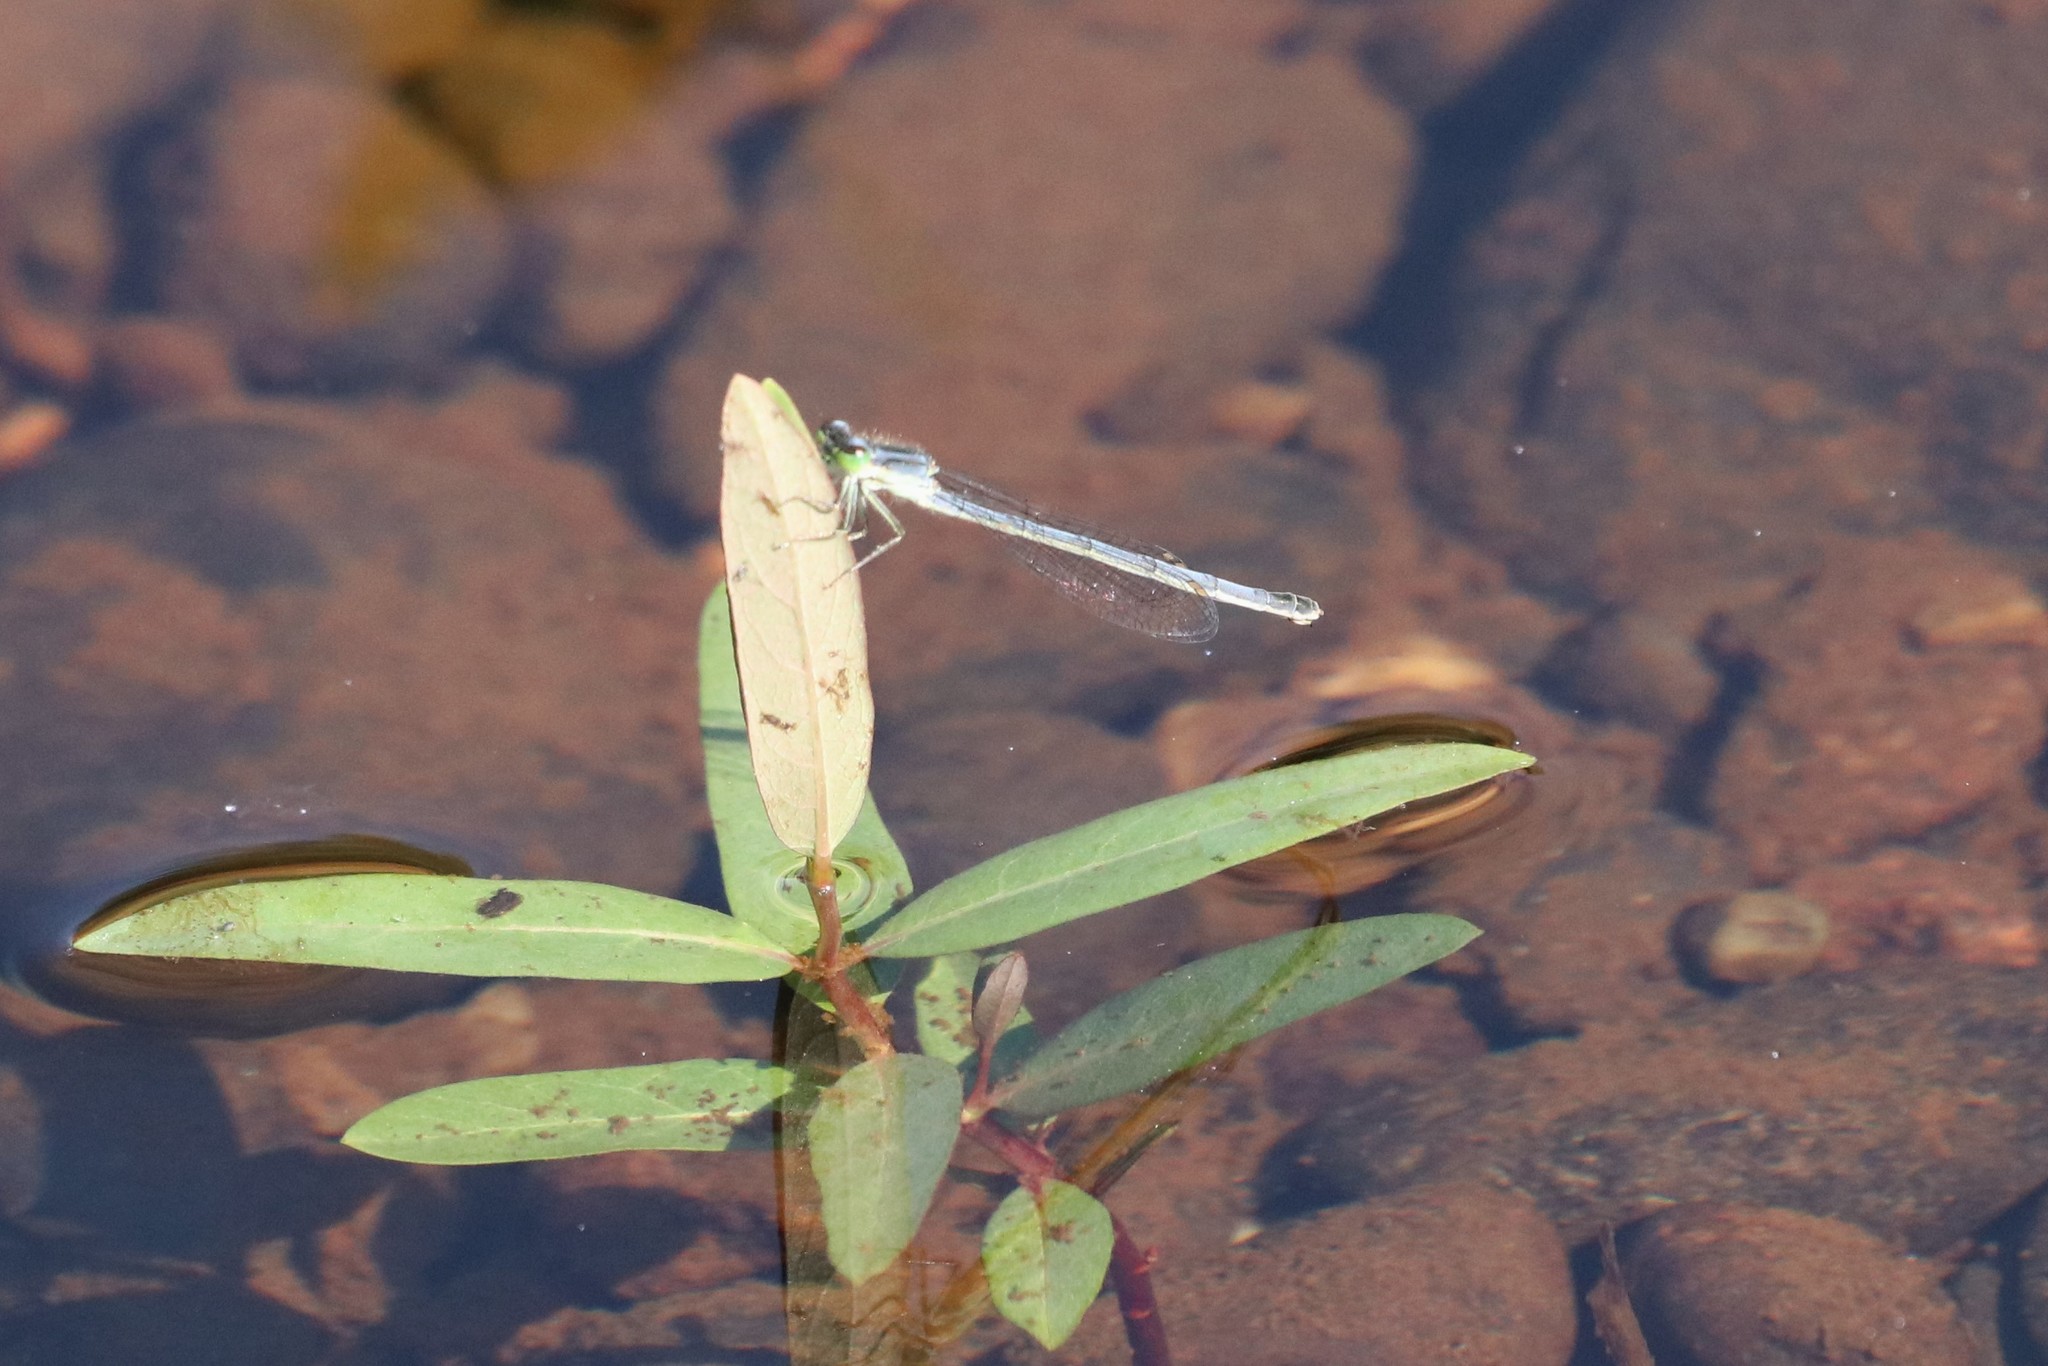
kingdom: Animalia
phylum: Arthropoda
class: Insecta
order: Odonata
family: Coenagrionidae
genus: Ischnura
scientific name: Ischnura verticalis
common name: Eastern forktail
